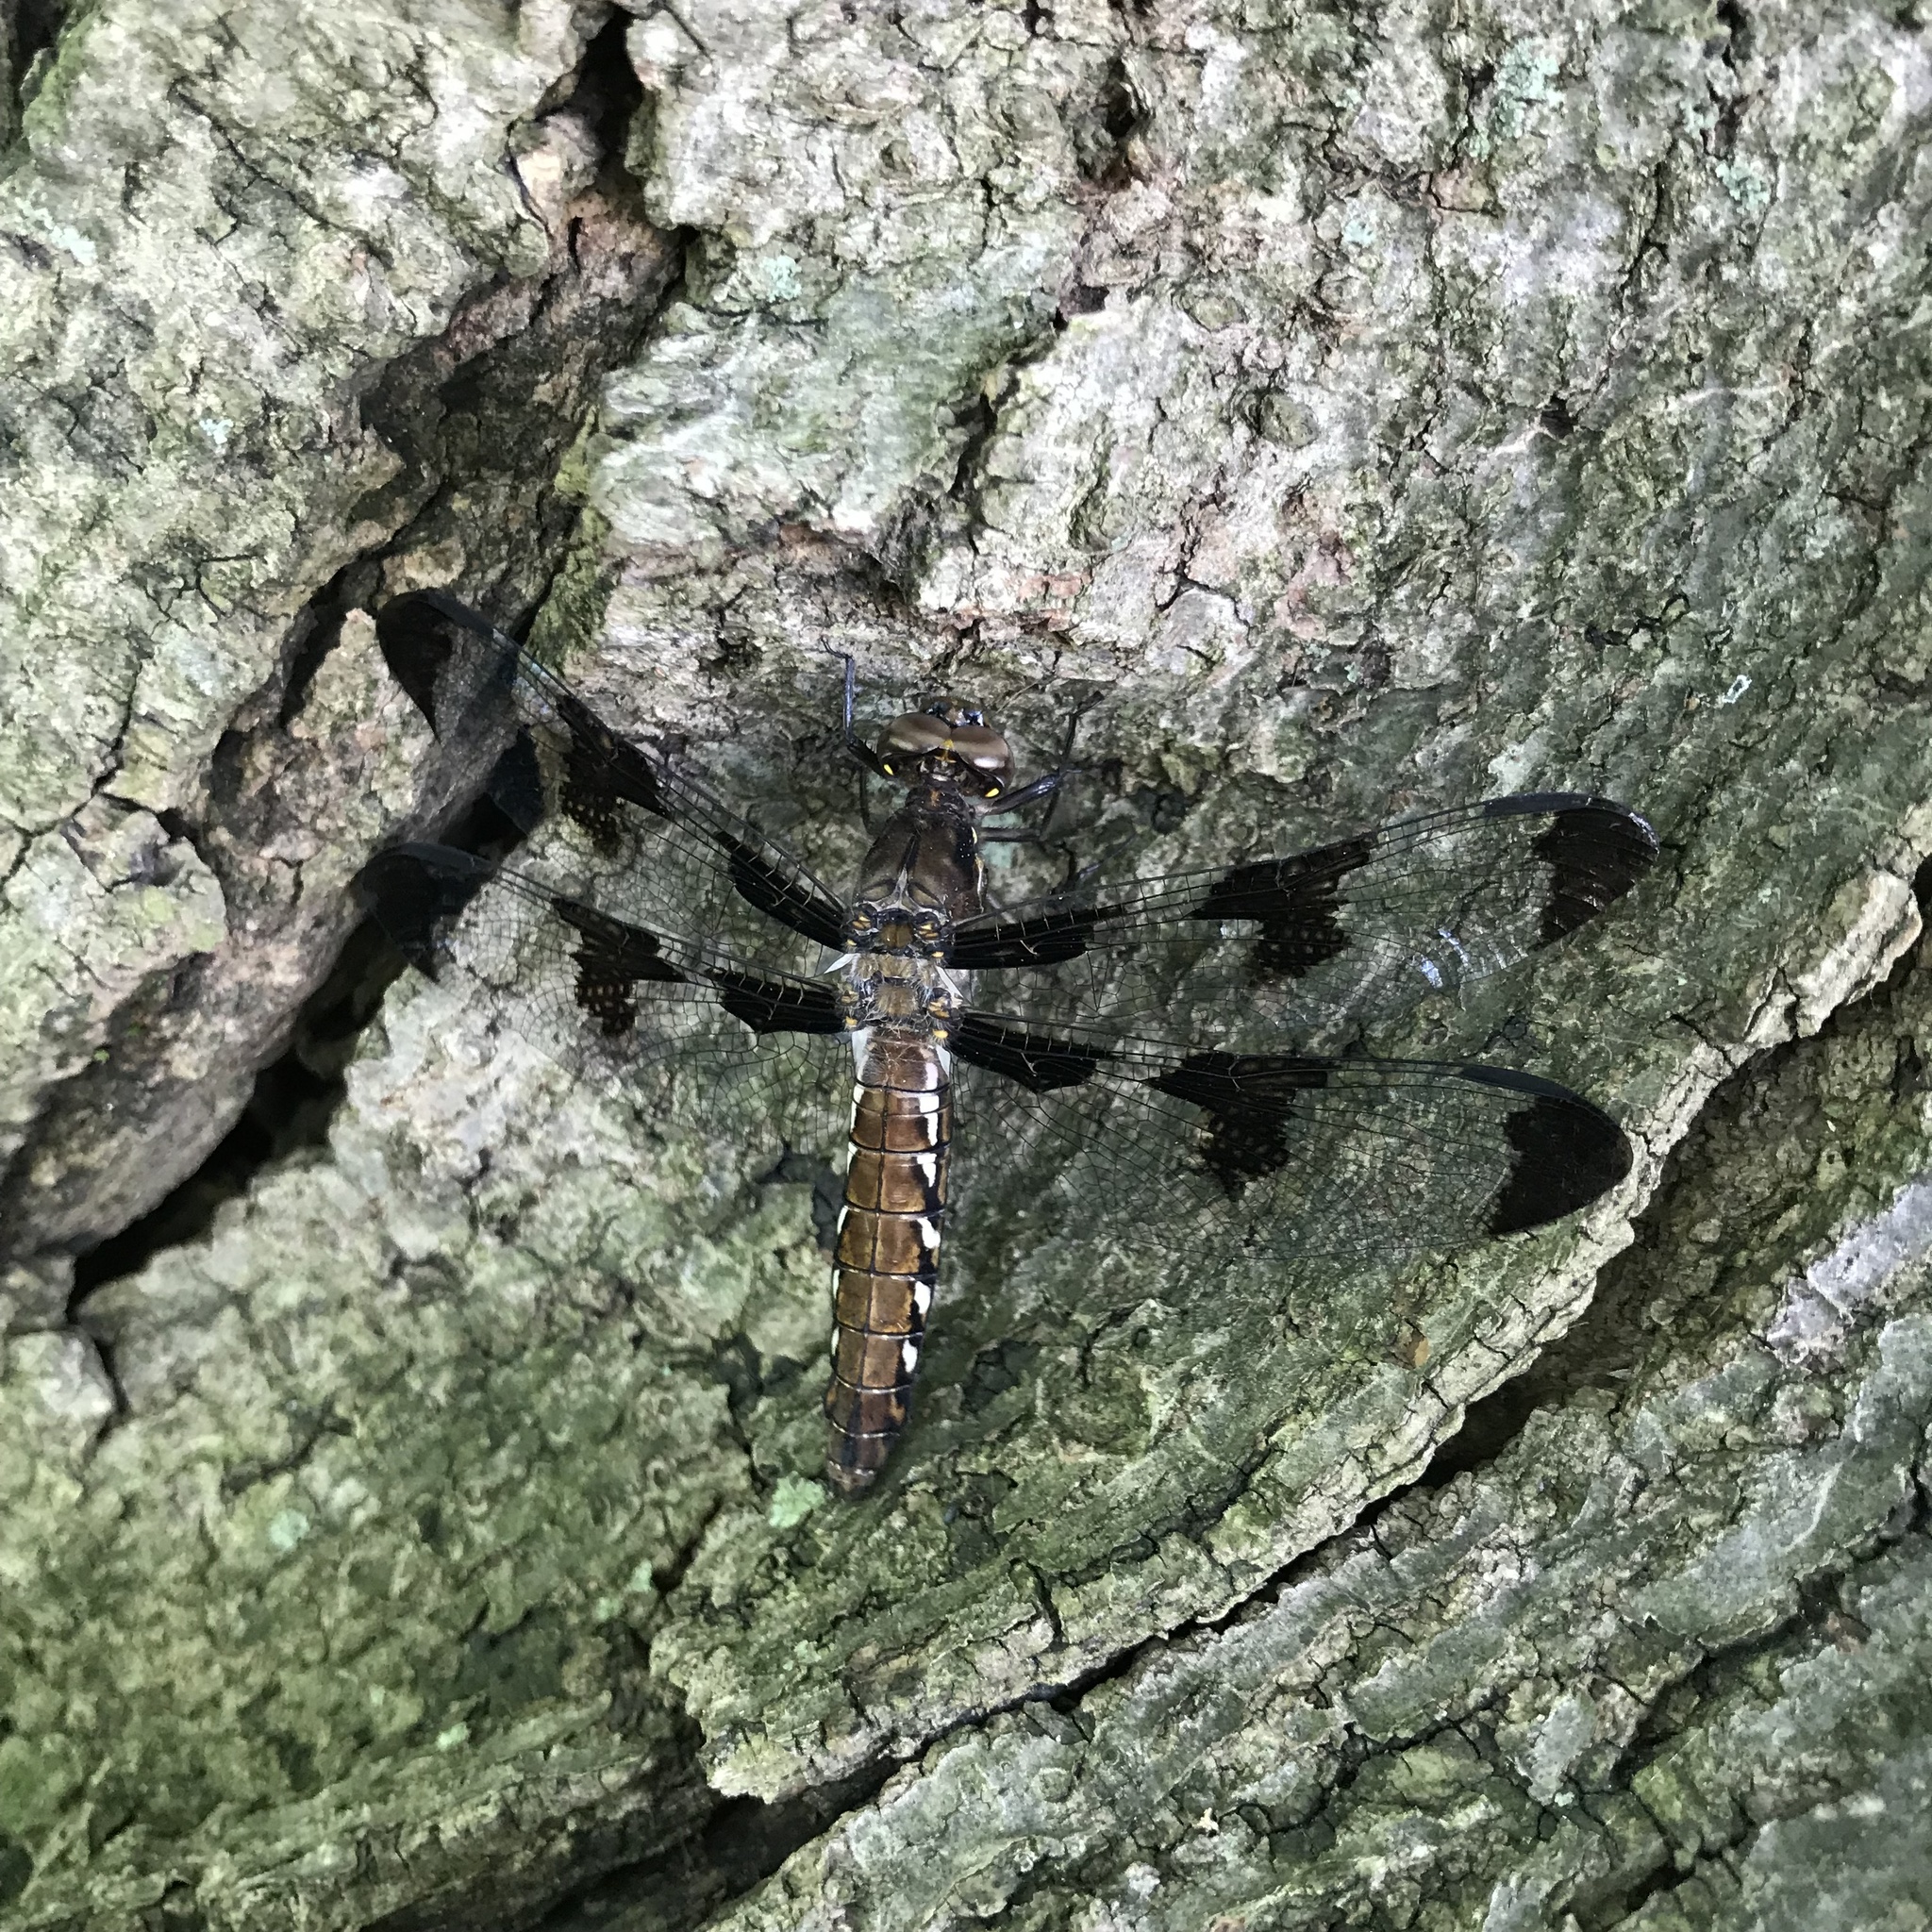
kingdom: Animalia
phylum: Arthropoda
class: Insecta
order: Odonata
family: Libellulidae
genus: Plathemis
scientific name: Plathemis lydia
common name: Common whitetail
